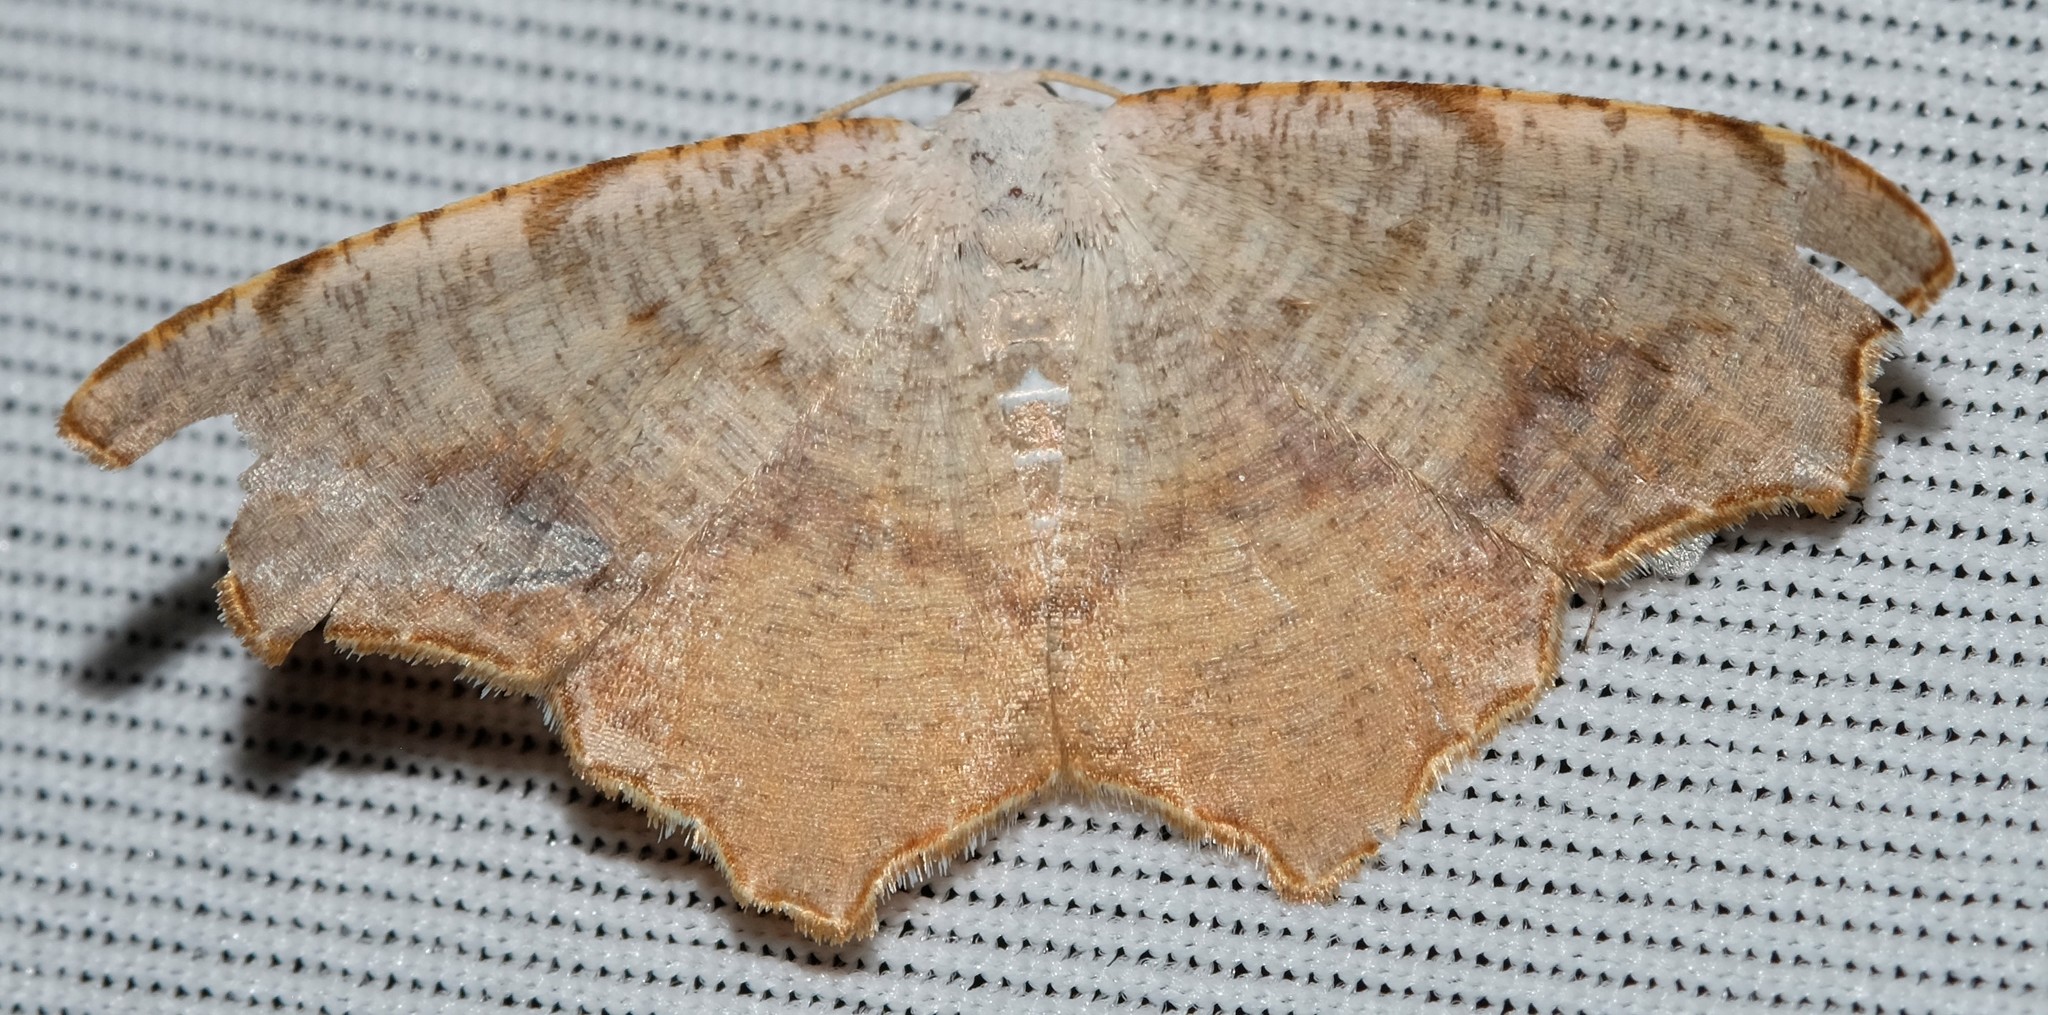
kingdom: Animalia
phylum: Arthropoda
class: Insecta
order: Lepidoptera
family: Geometridae
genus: Epicompsa
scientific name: Epicompsa xanthocrossa
